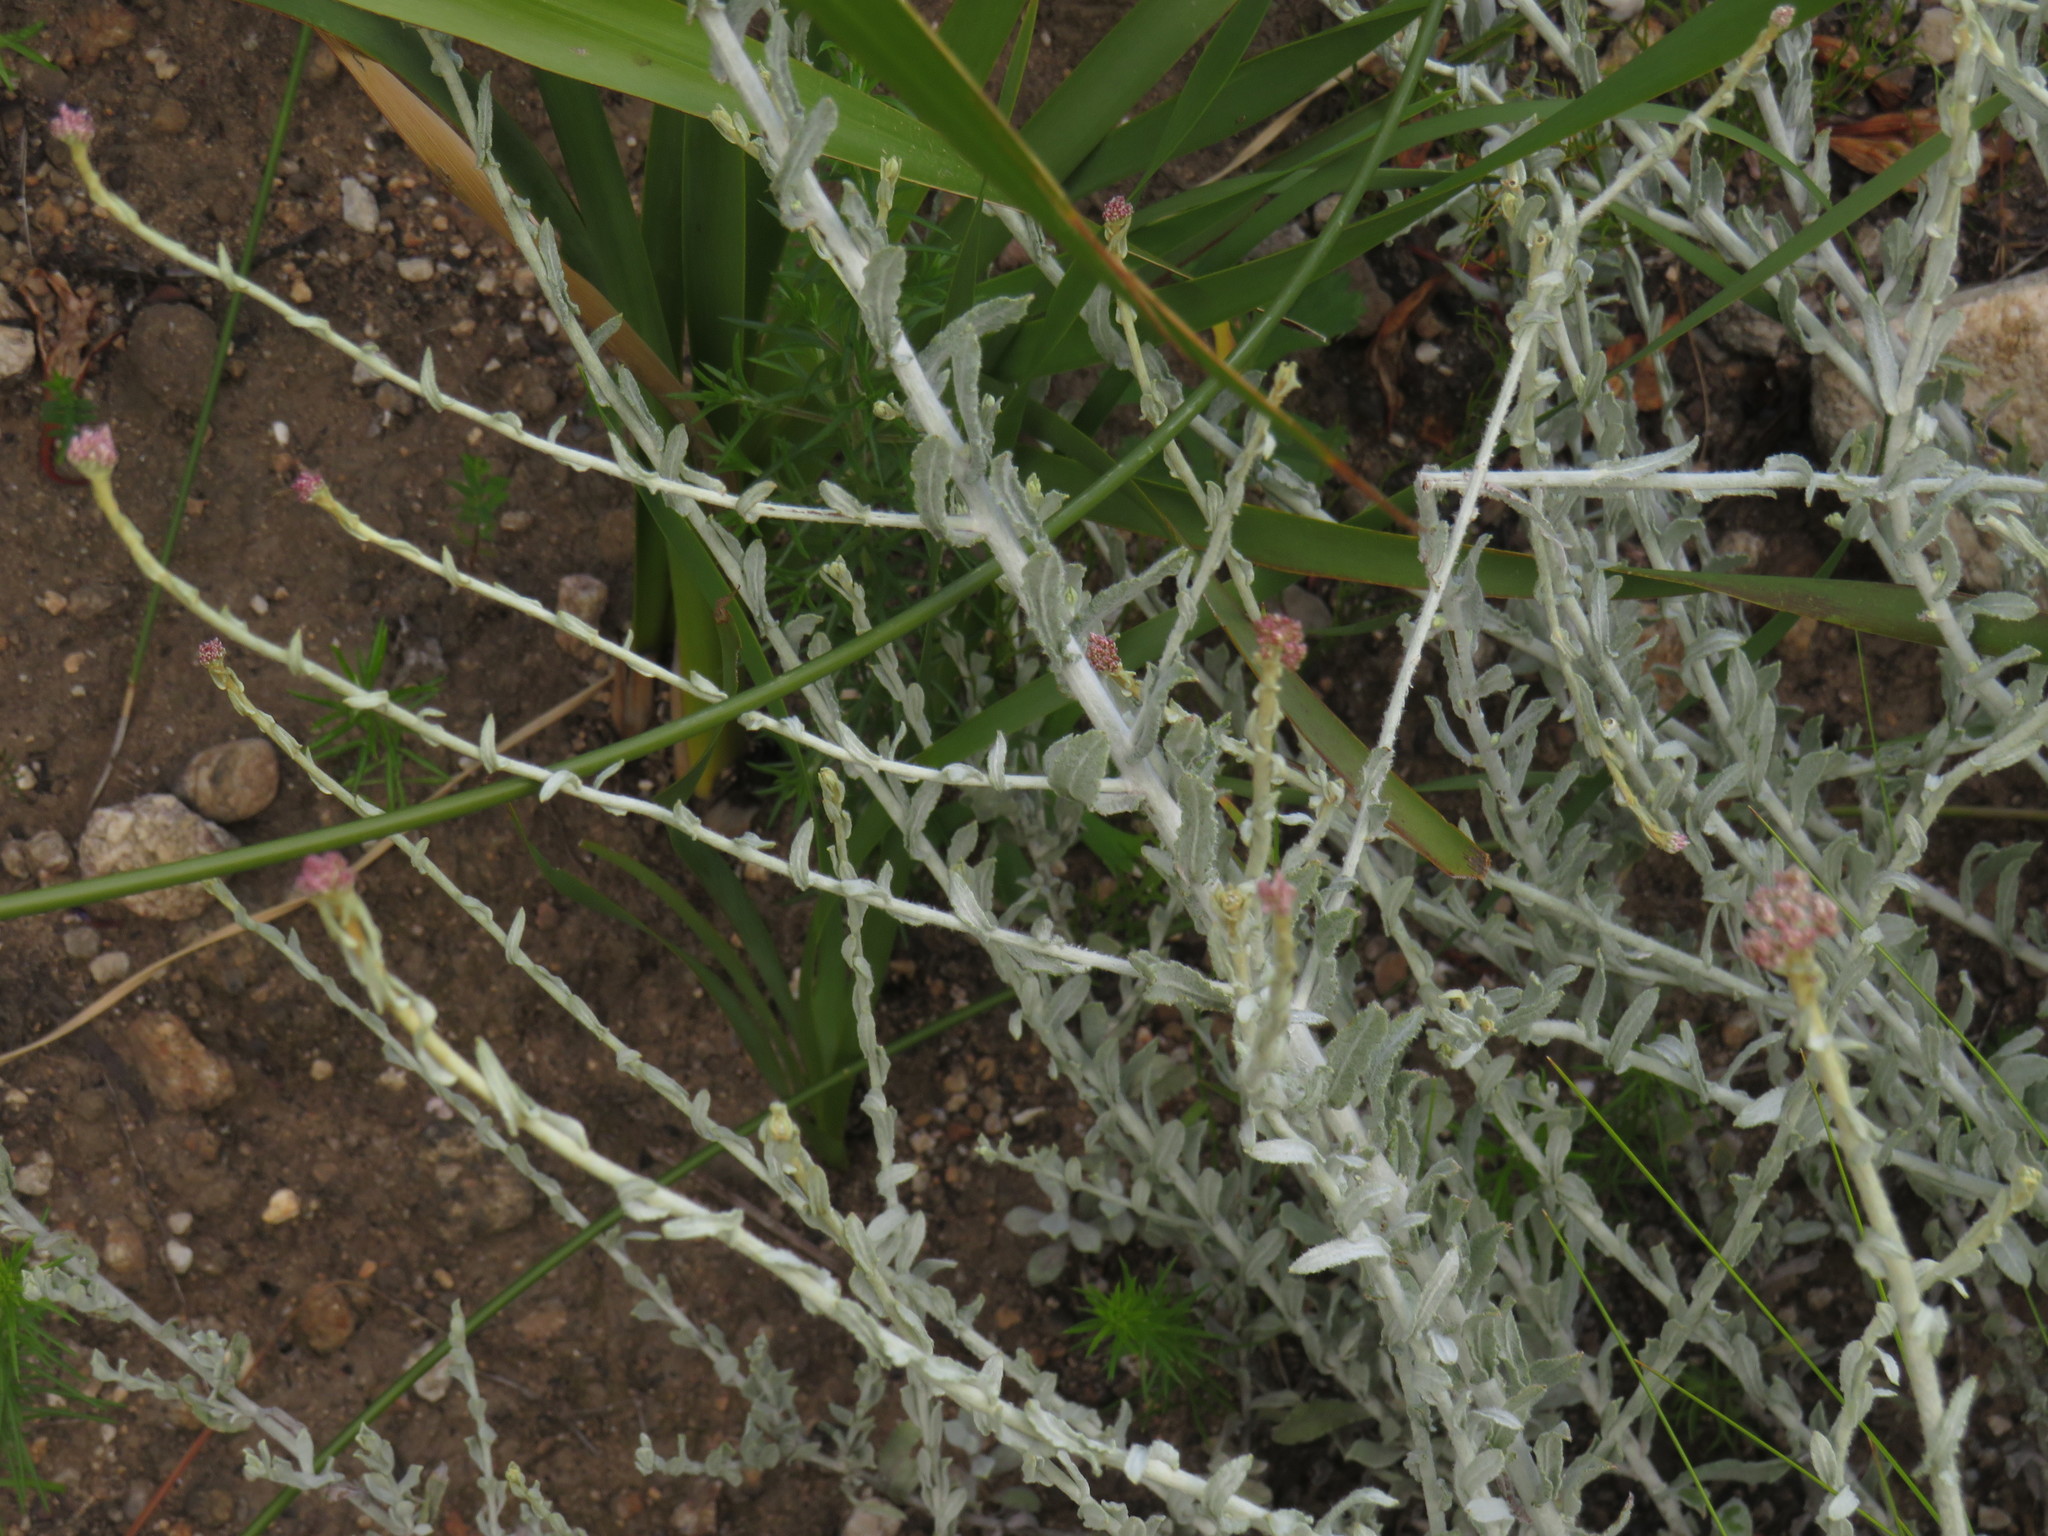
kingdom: Plantae
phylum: Tracheophyta
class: Magnoliopsida
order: Asterales
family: Asteraceae
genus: Helichrysum
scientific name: Helichrysum zeyheri
